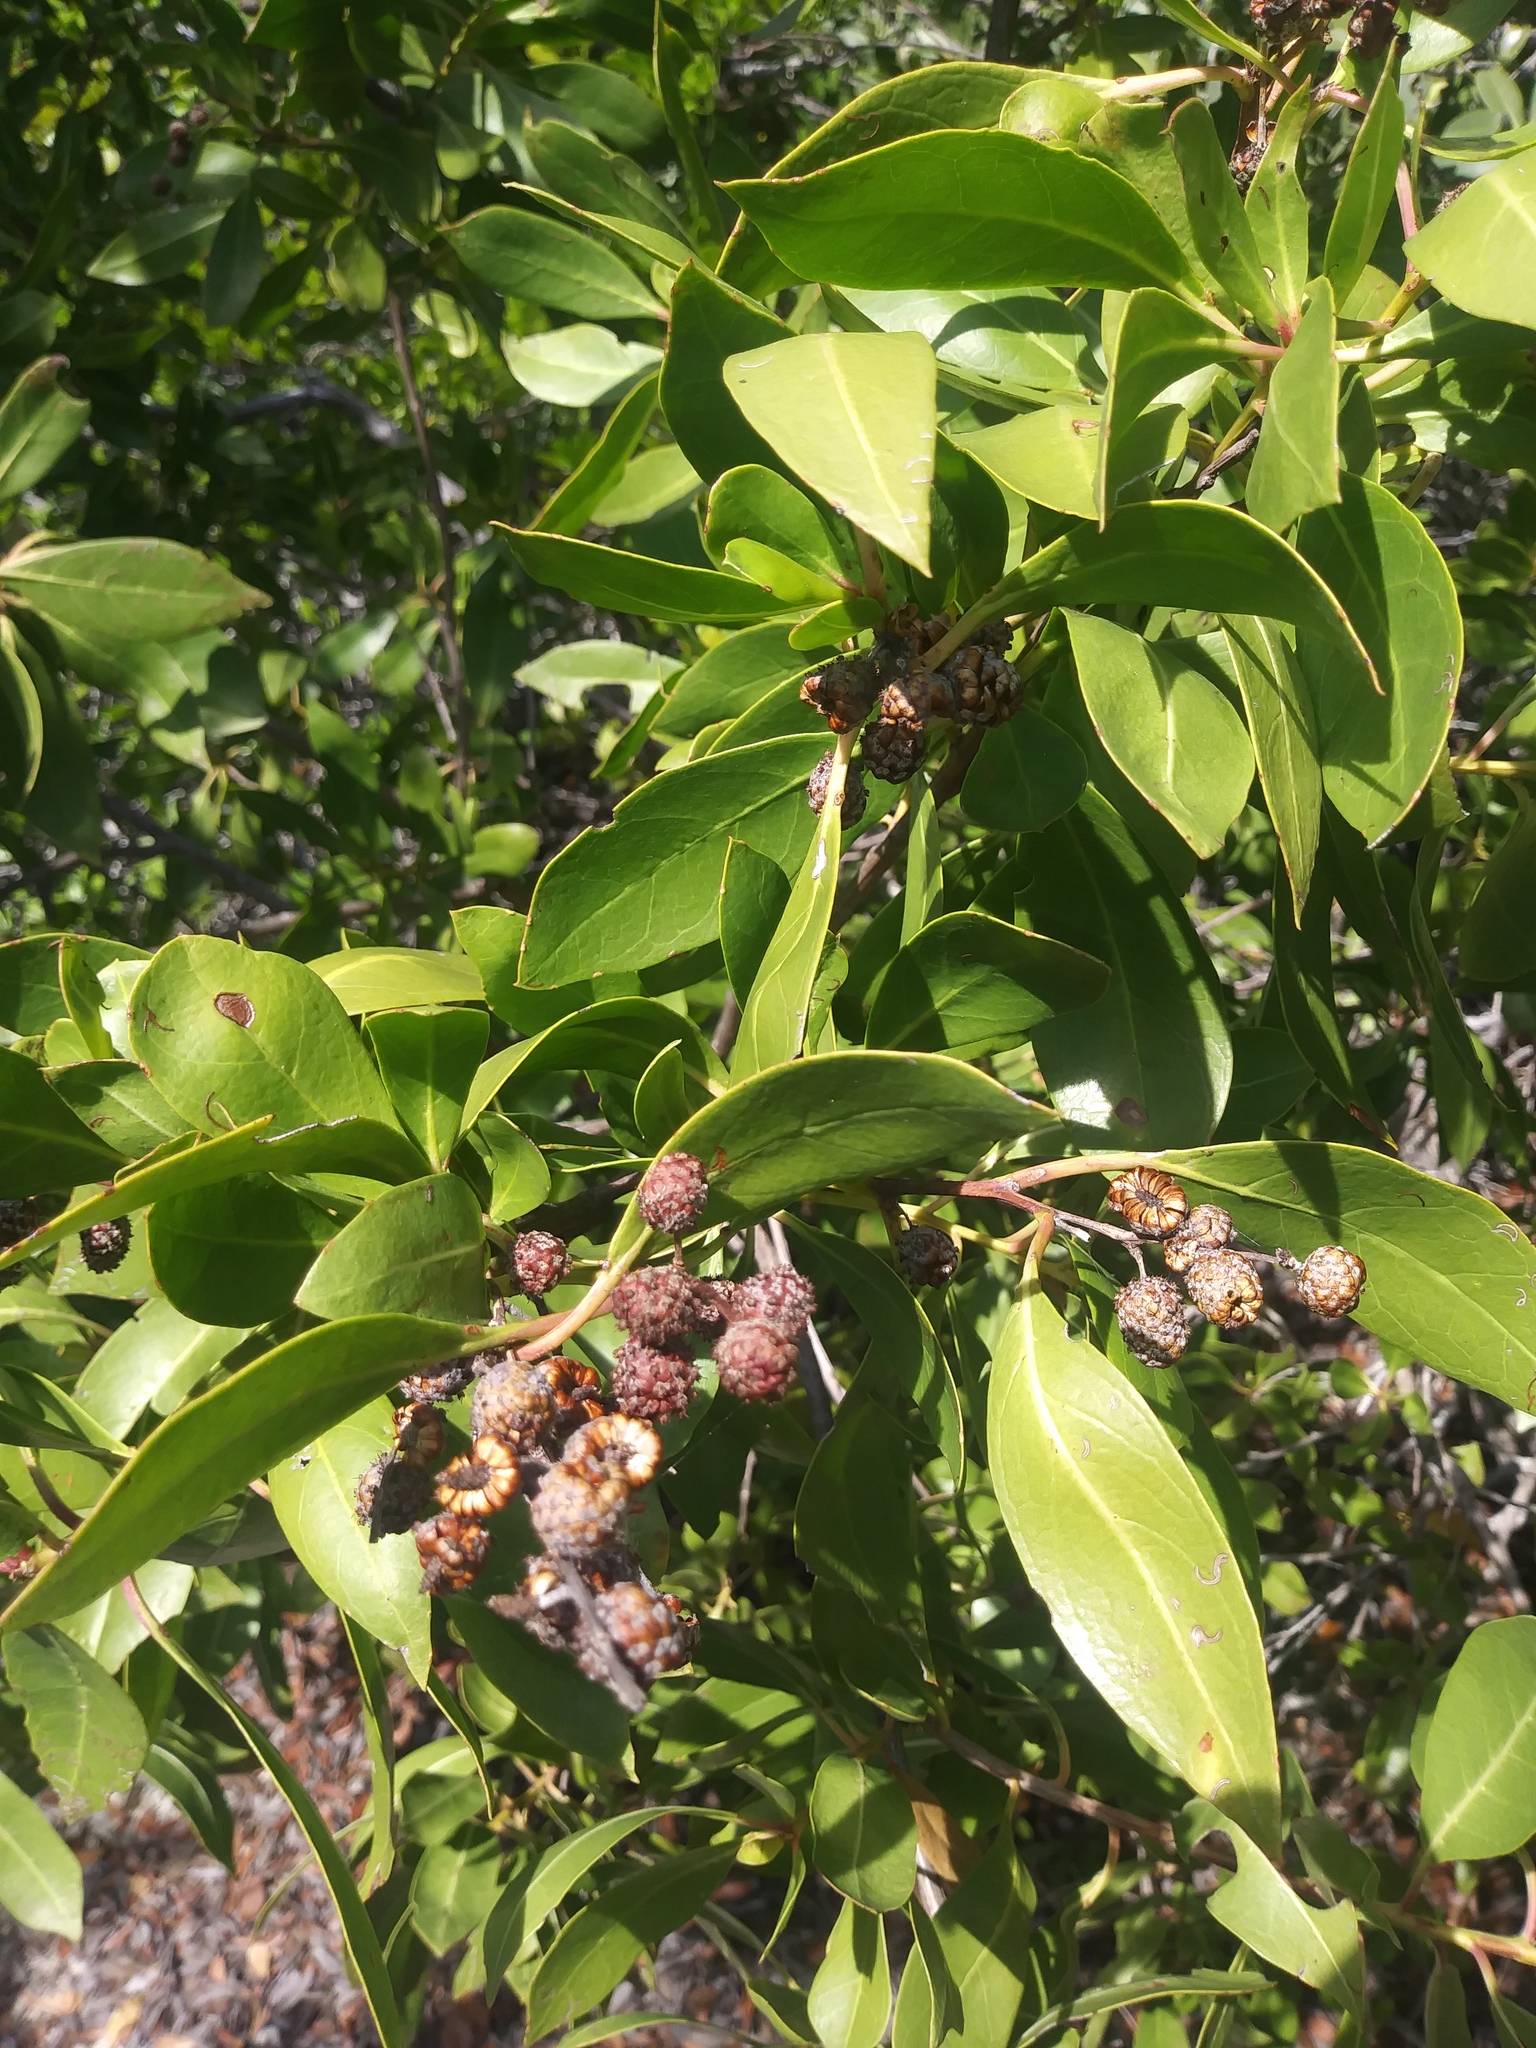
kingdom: Plantae
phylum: Tracheophyta
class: Magnoliopsida
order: Myrtales
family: Combretaceae
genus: Conocarpus
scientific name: Conocarpus erectus
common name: Button mangrove
